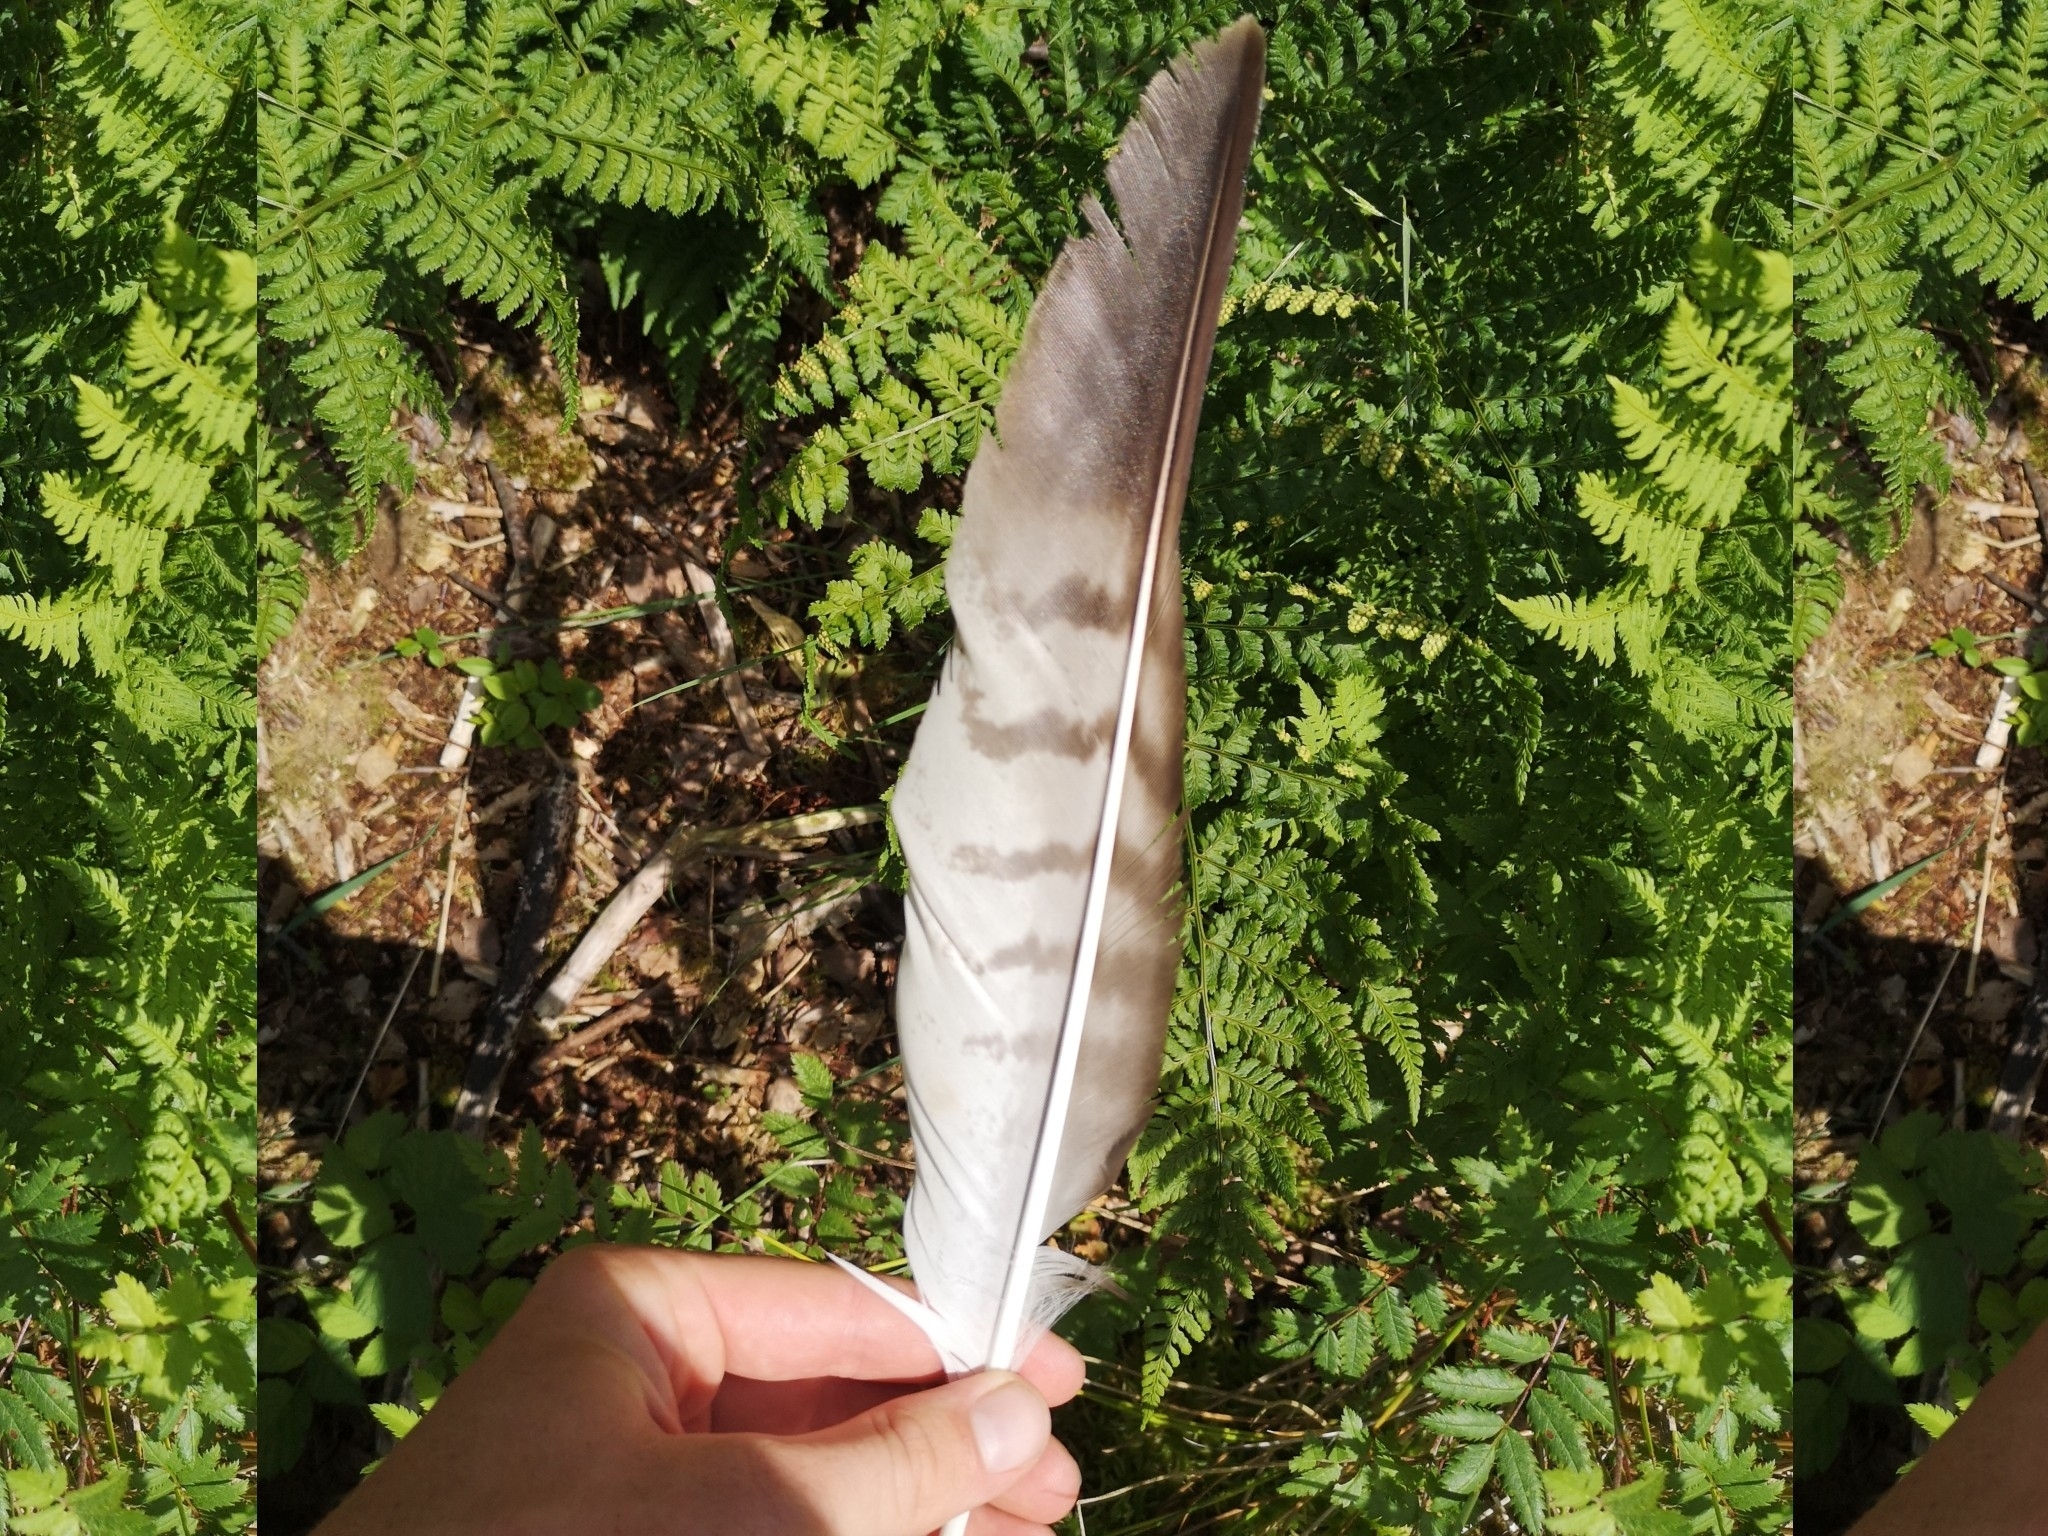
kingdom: Animalia
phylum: Chordata
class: Aves
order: Accipitriformes
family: Accipitridae
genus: Buteo
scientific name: Buteo buteo
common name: Common buzzard
